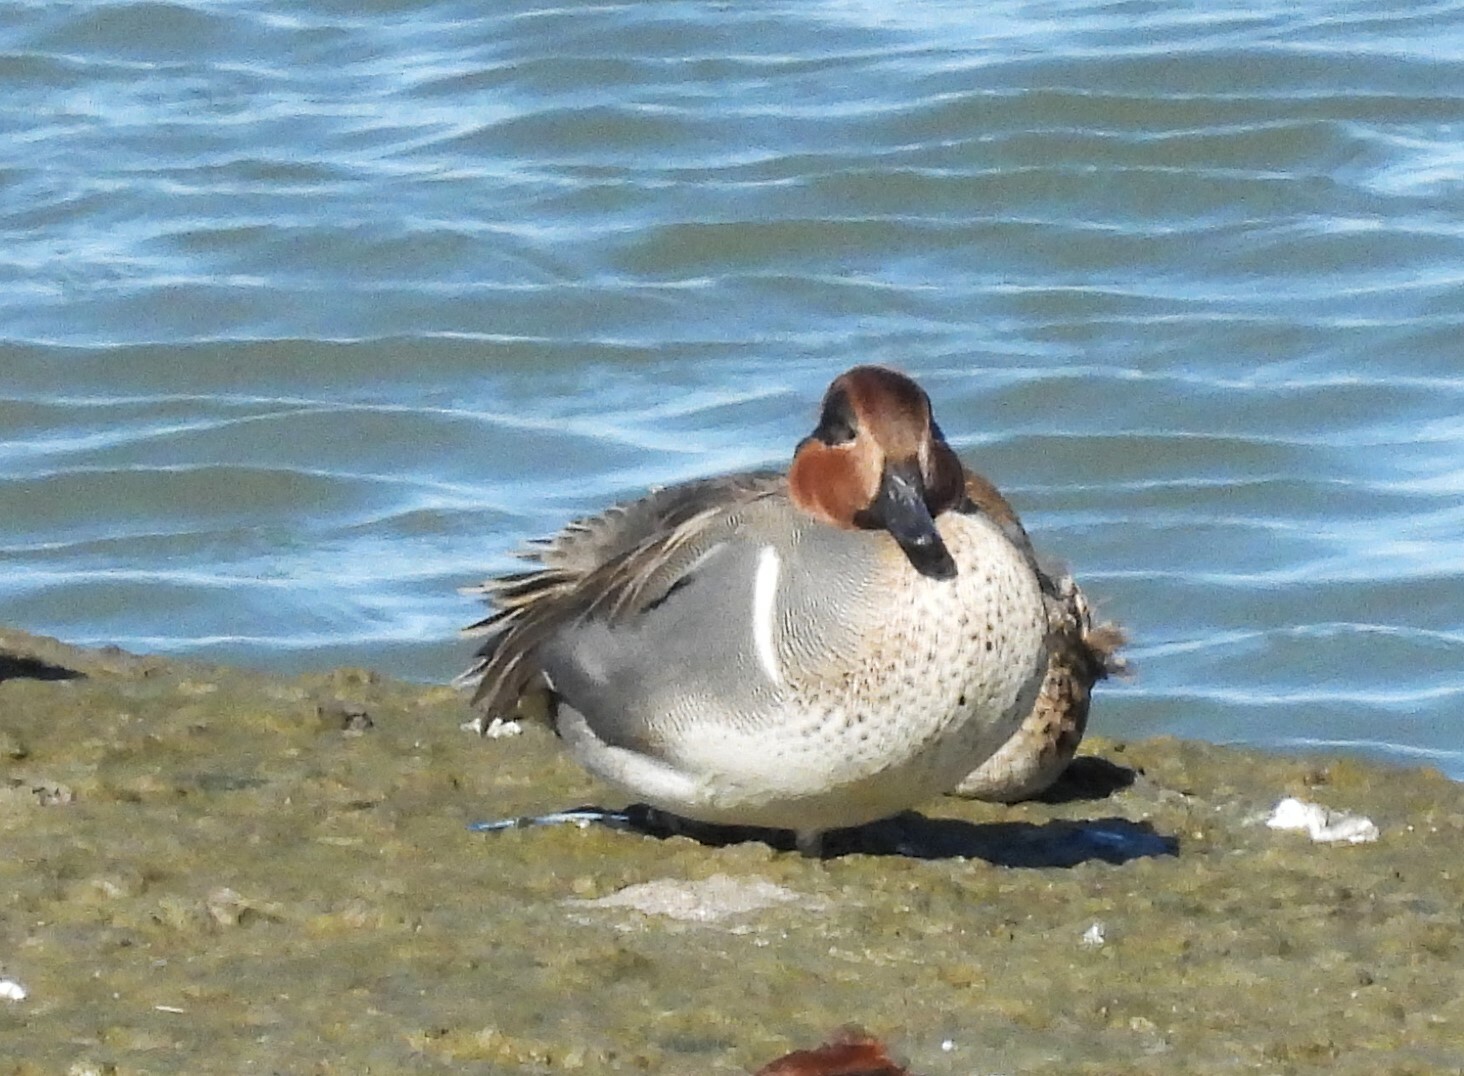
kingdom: Animalia
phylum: Chordata
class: Aves
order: Anseriformes
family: Anatidae
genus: Anas
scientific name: Anas crecca
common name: Eurasian teal
